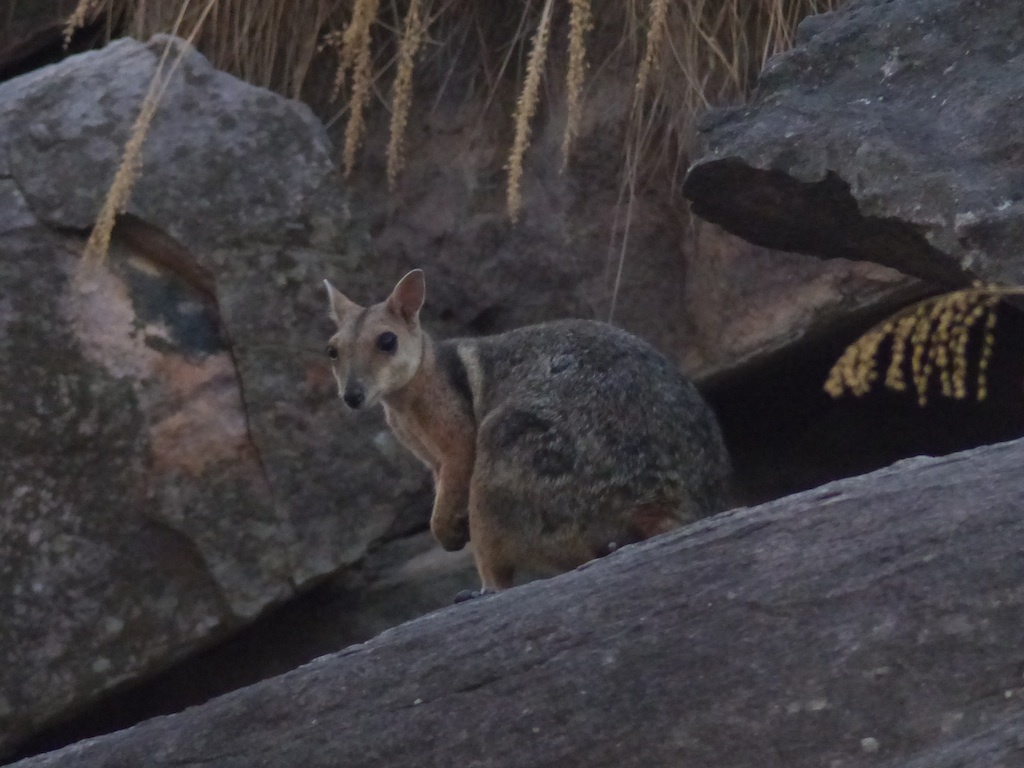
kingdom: Animalia
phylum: Chordata
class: Mammalia
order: Diprotodontia
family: Macropodidae
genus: Petrogale
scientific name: Petrogale wilkinsi
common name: Wilkins’s rock wallaby
